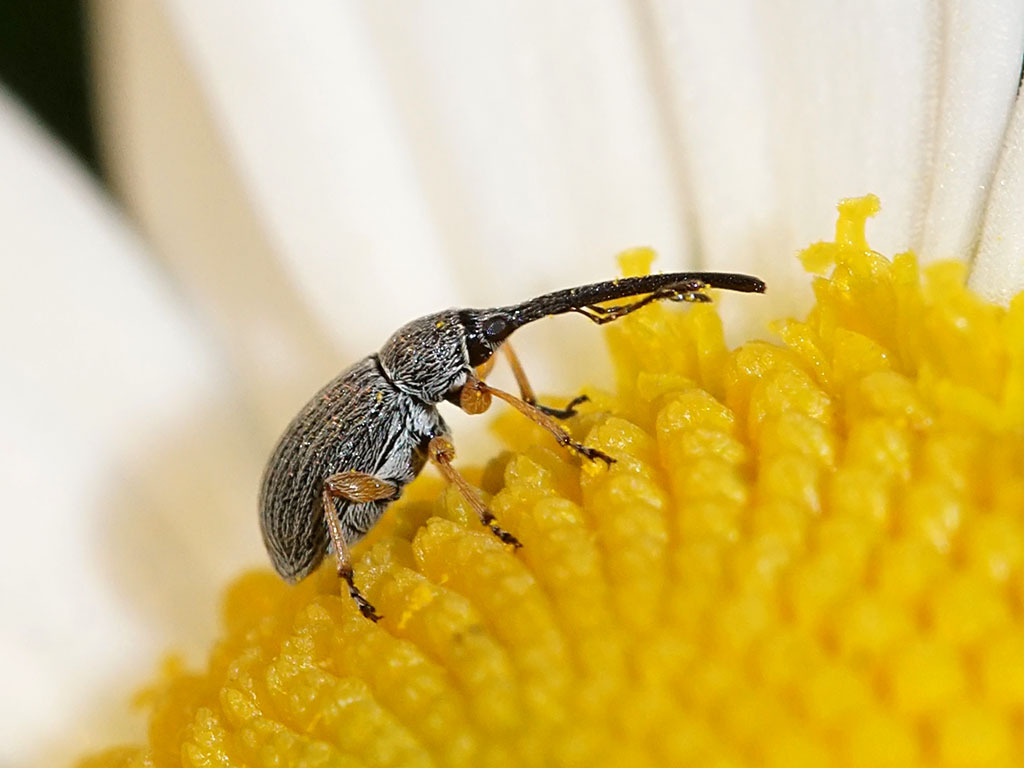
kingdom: Animalia
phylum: Arthropoda
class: Insecta
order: Coleoptera
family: Brentidae
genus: Rhopalapion
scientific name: Rhopalapion longirostre
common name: Hollyhock weevil
